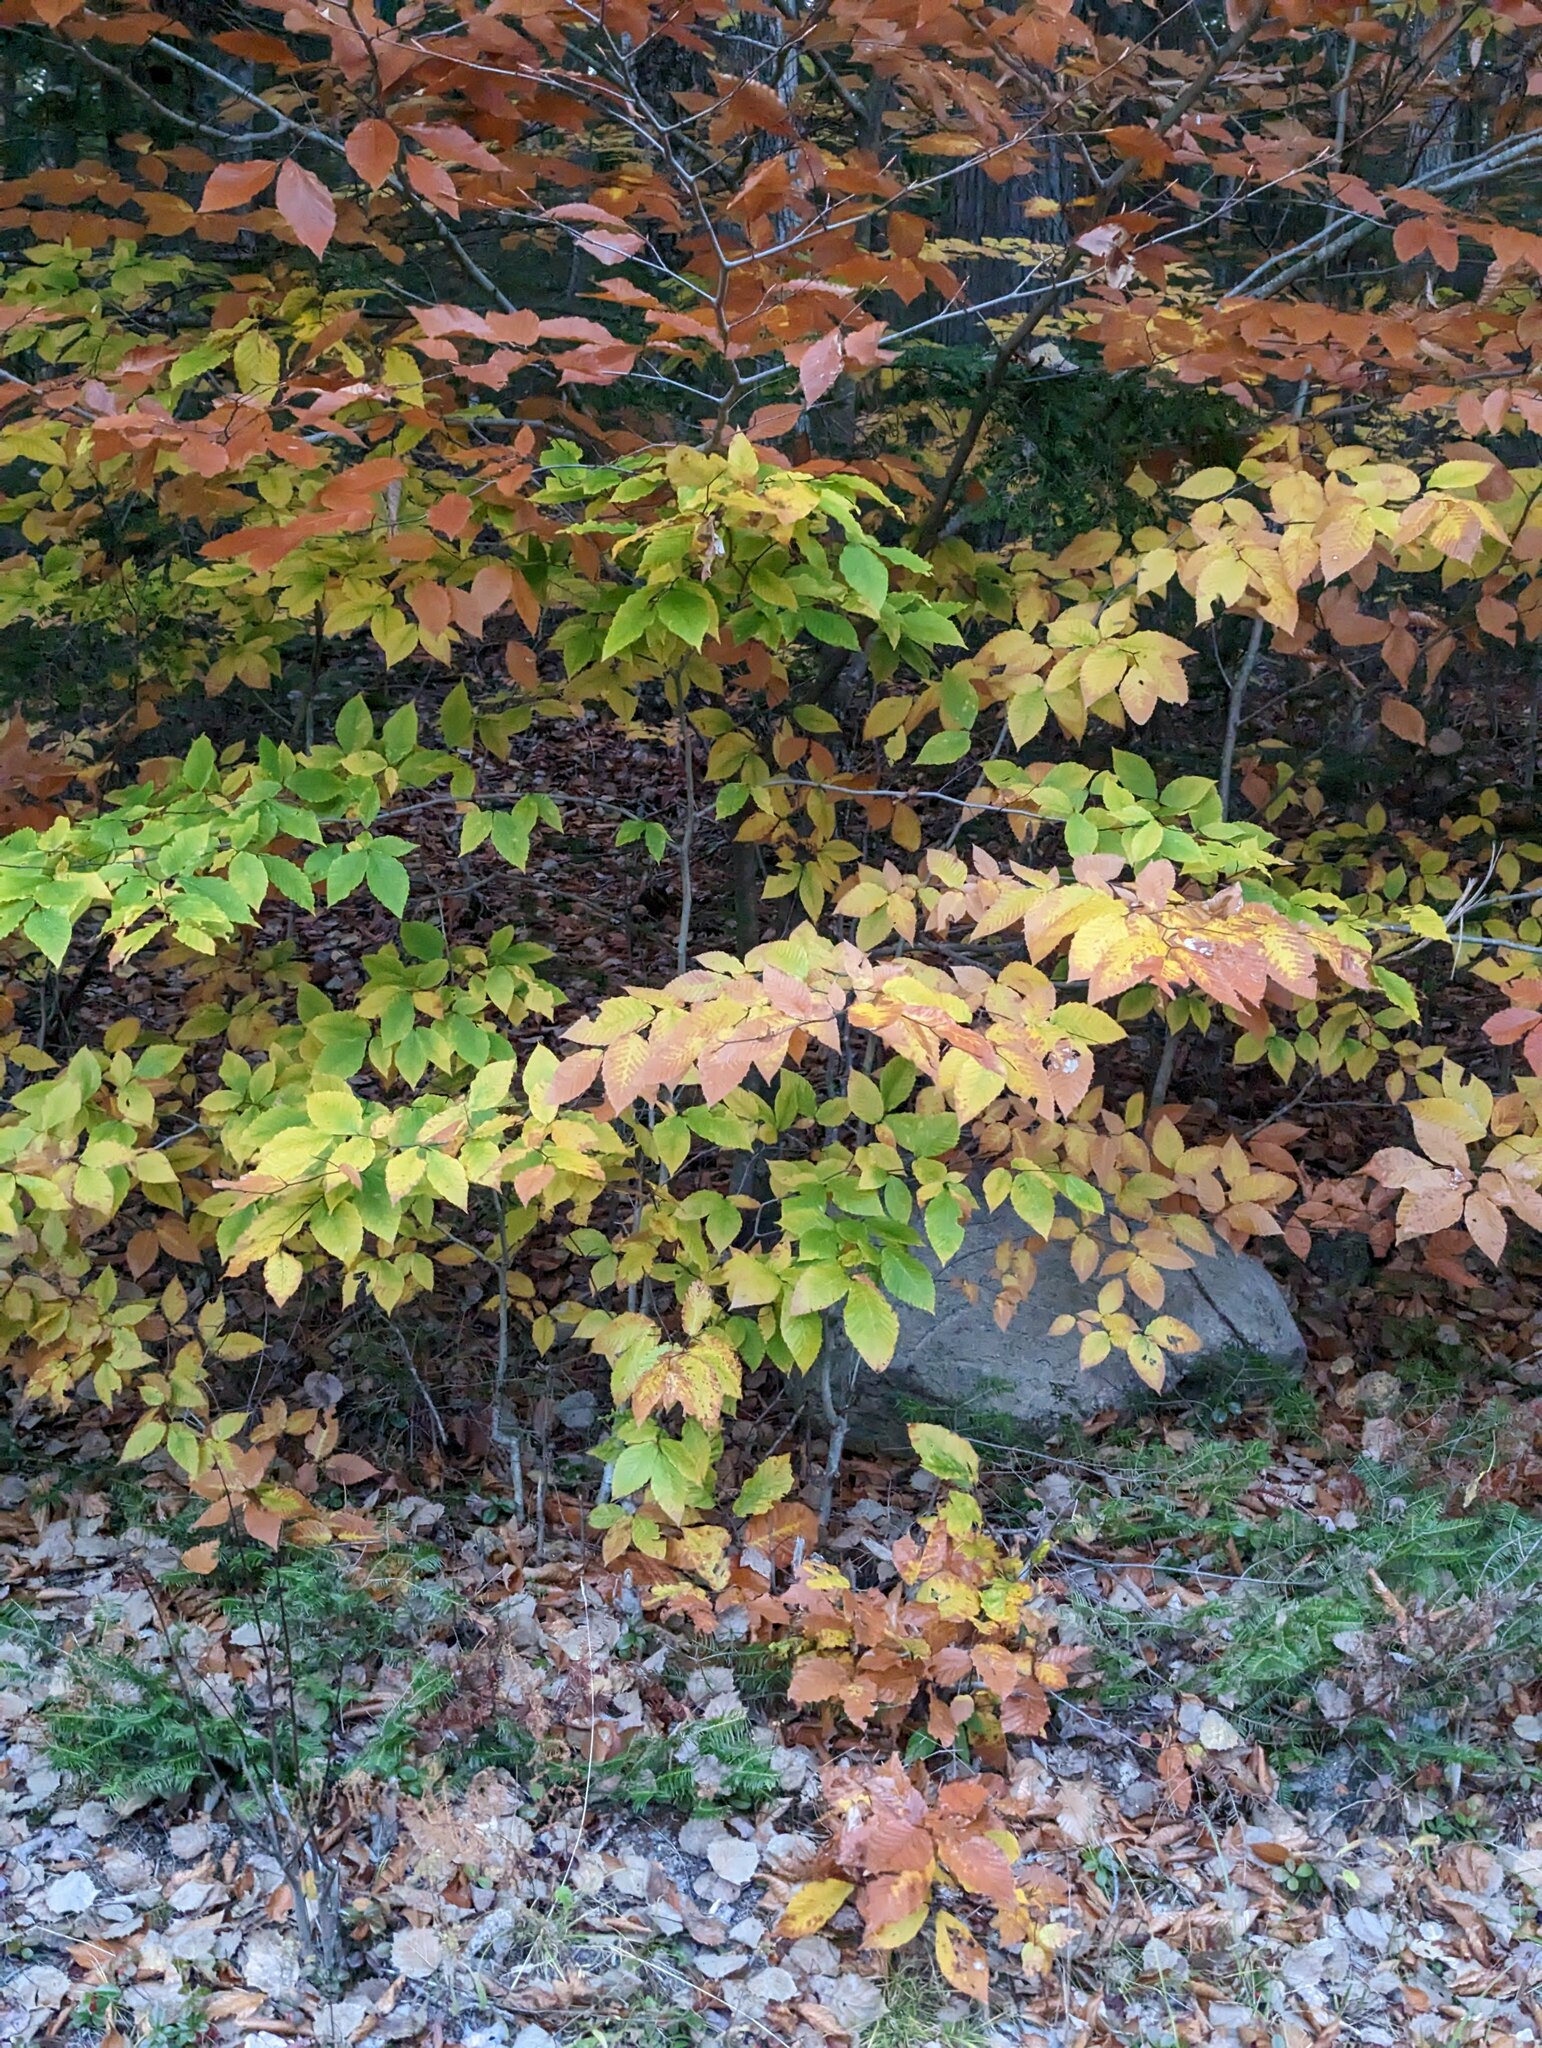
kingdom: Plantae
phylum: Tracheophyta
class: Magnoliopsida
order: Fagales
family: Fagaceae
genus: Fagus
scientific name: Fagus grandifolia
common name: American beech
